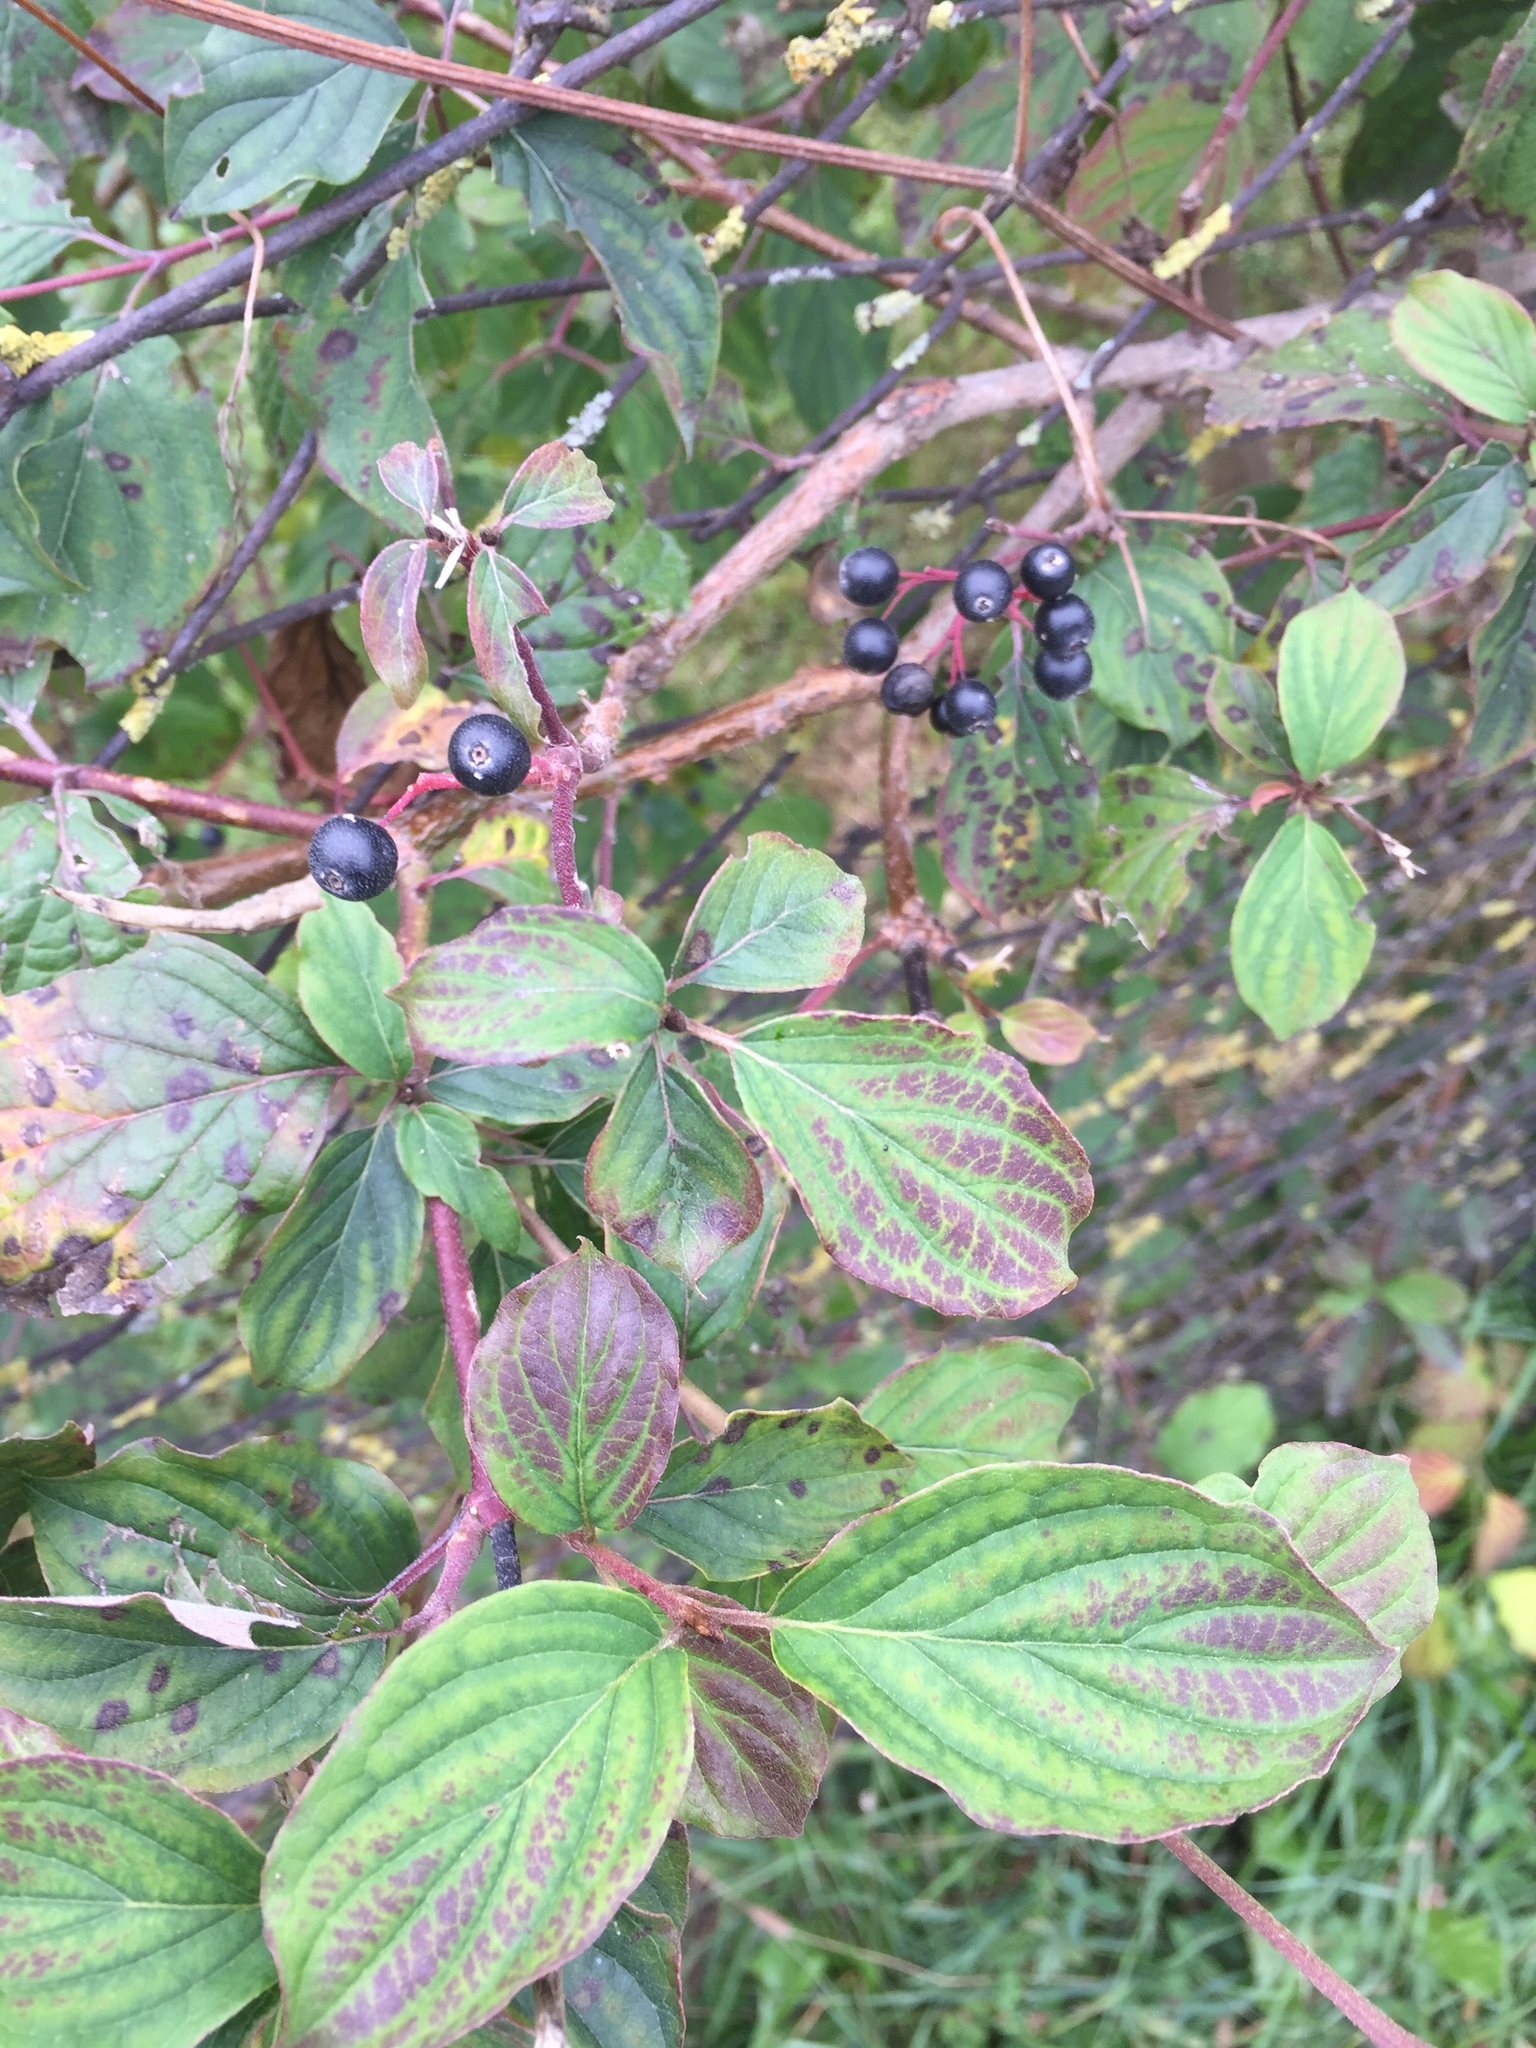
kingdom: Plantae
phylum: Tracheophyta
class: Magnoliopsida
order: Cornales
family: Cornaceae
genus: Cornus
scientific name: Cornus sanguinea
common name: Dogwood
